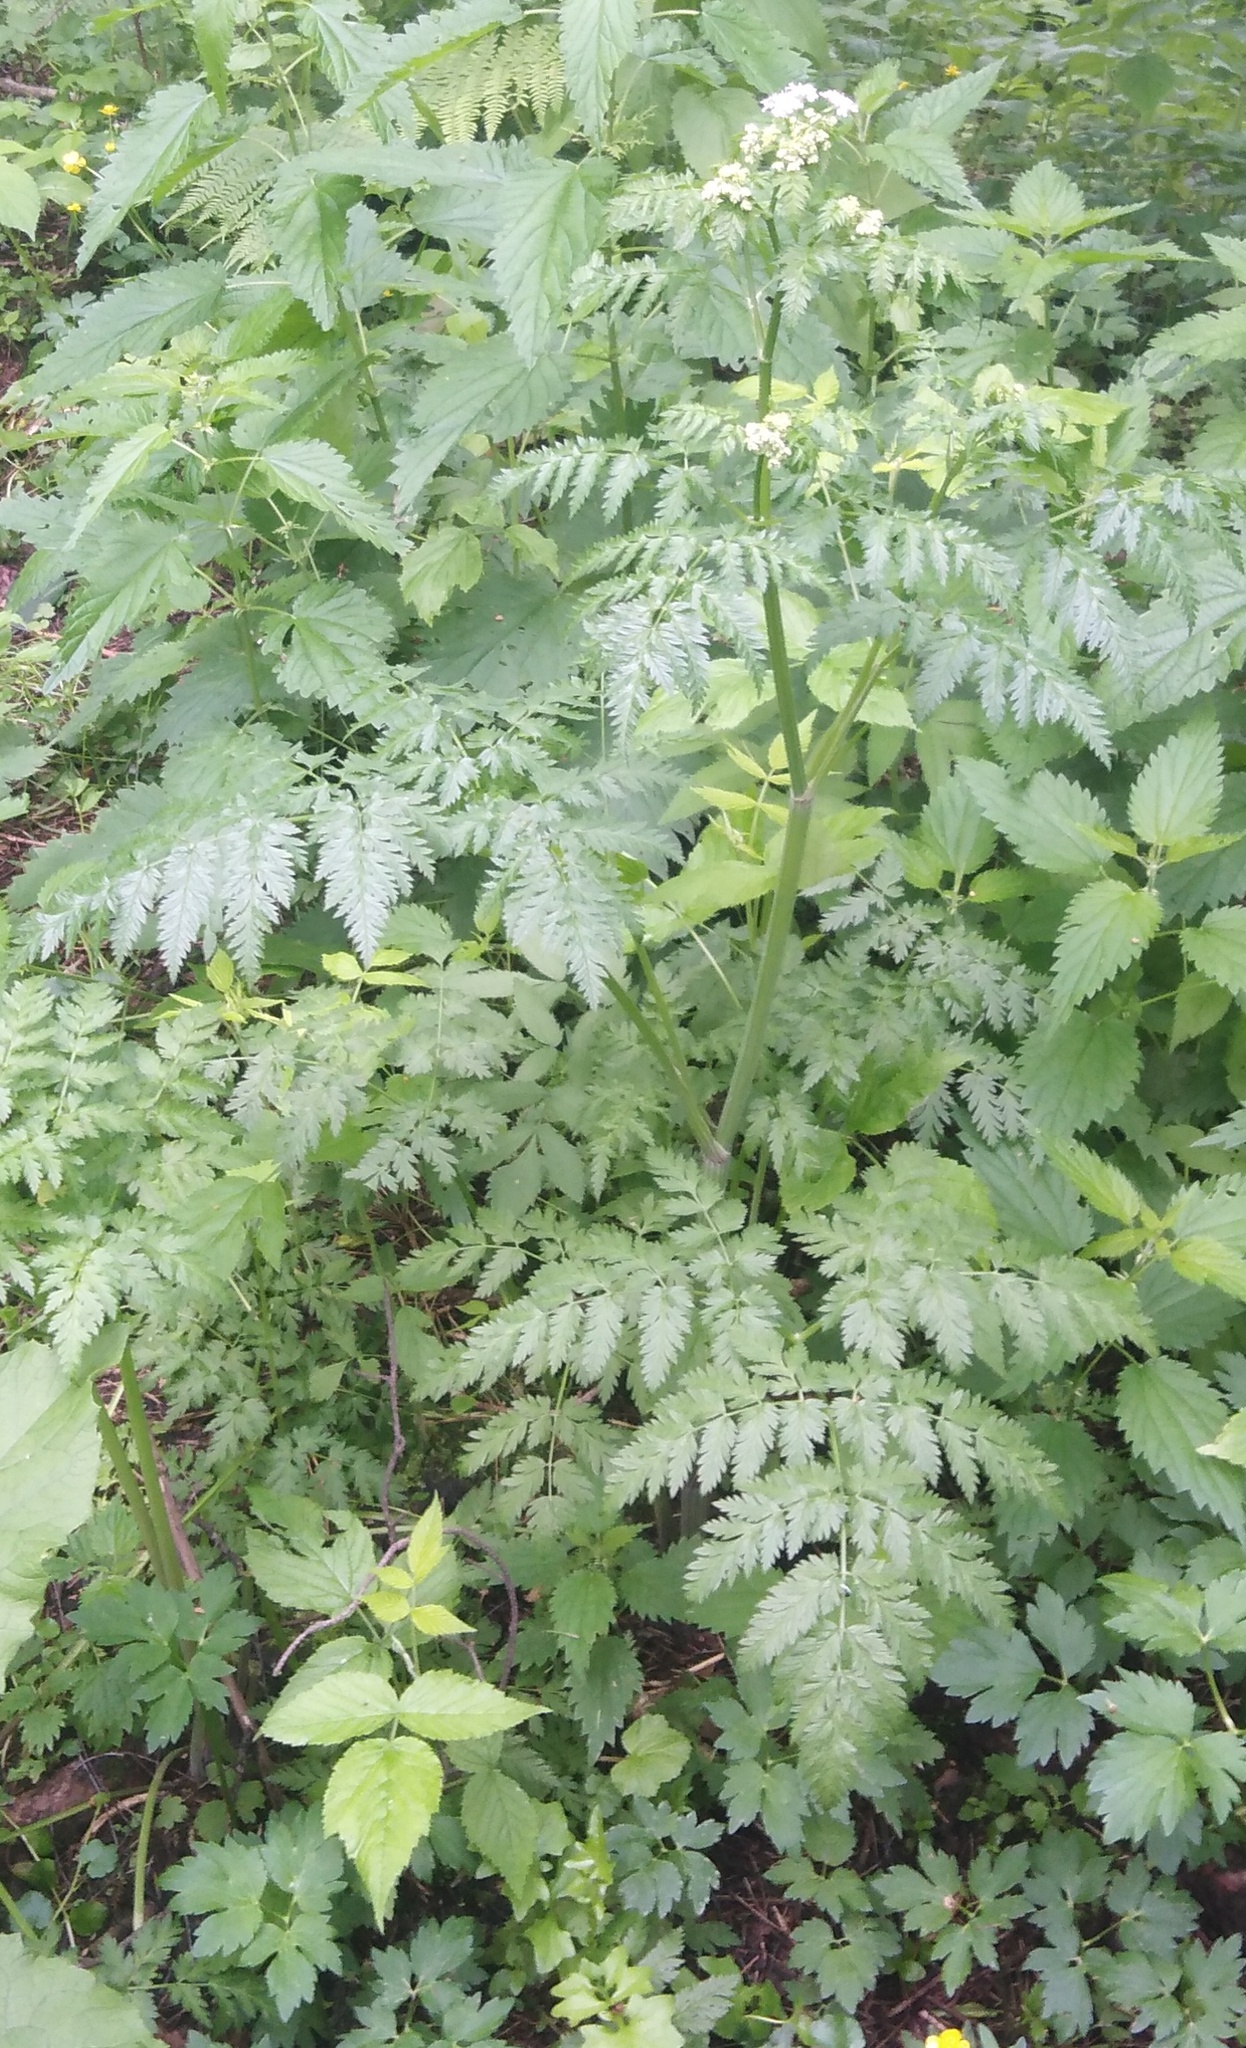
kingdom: Plantae
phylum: Tracheophyta
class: Magnoliopsida
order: Apiales
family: Apiaceae
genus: Anthriscus
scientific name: Anthriscus sylvestris
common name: Cow parsley
